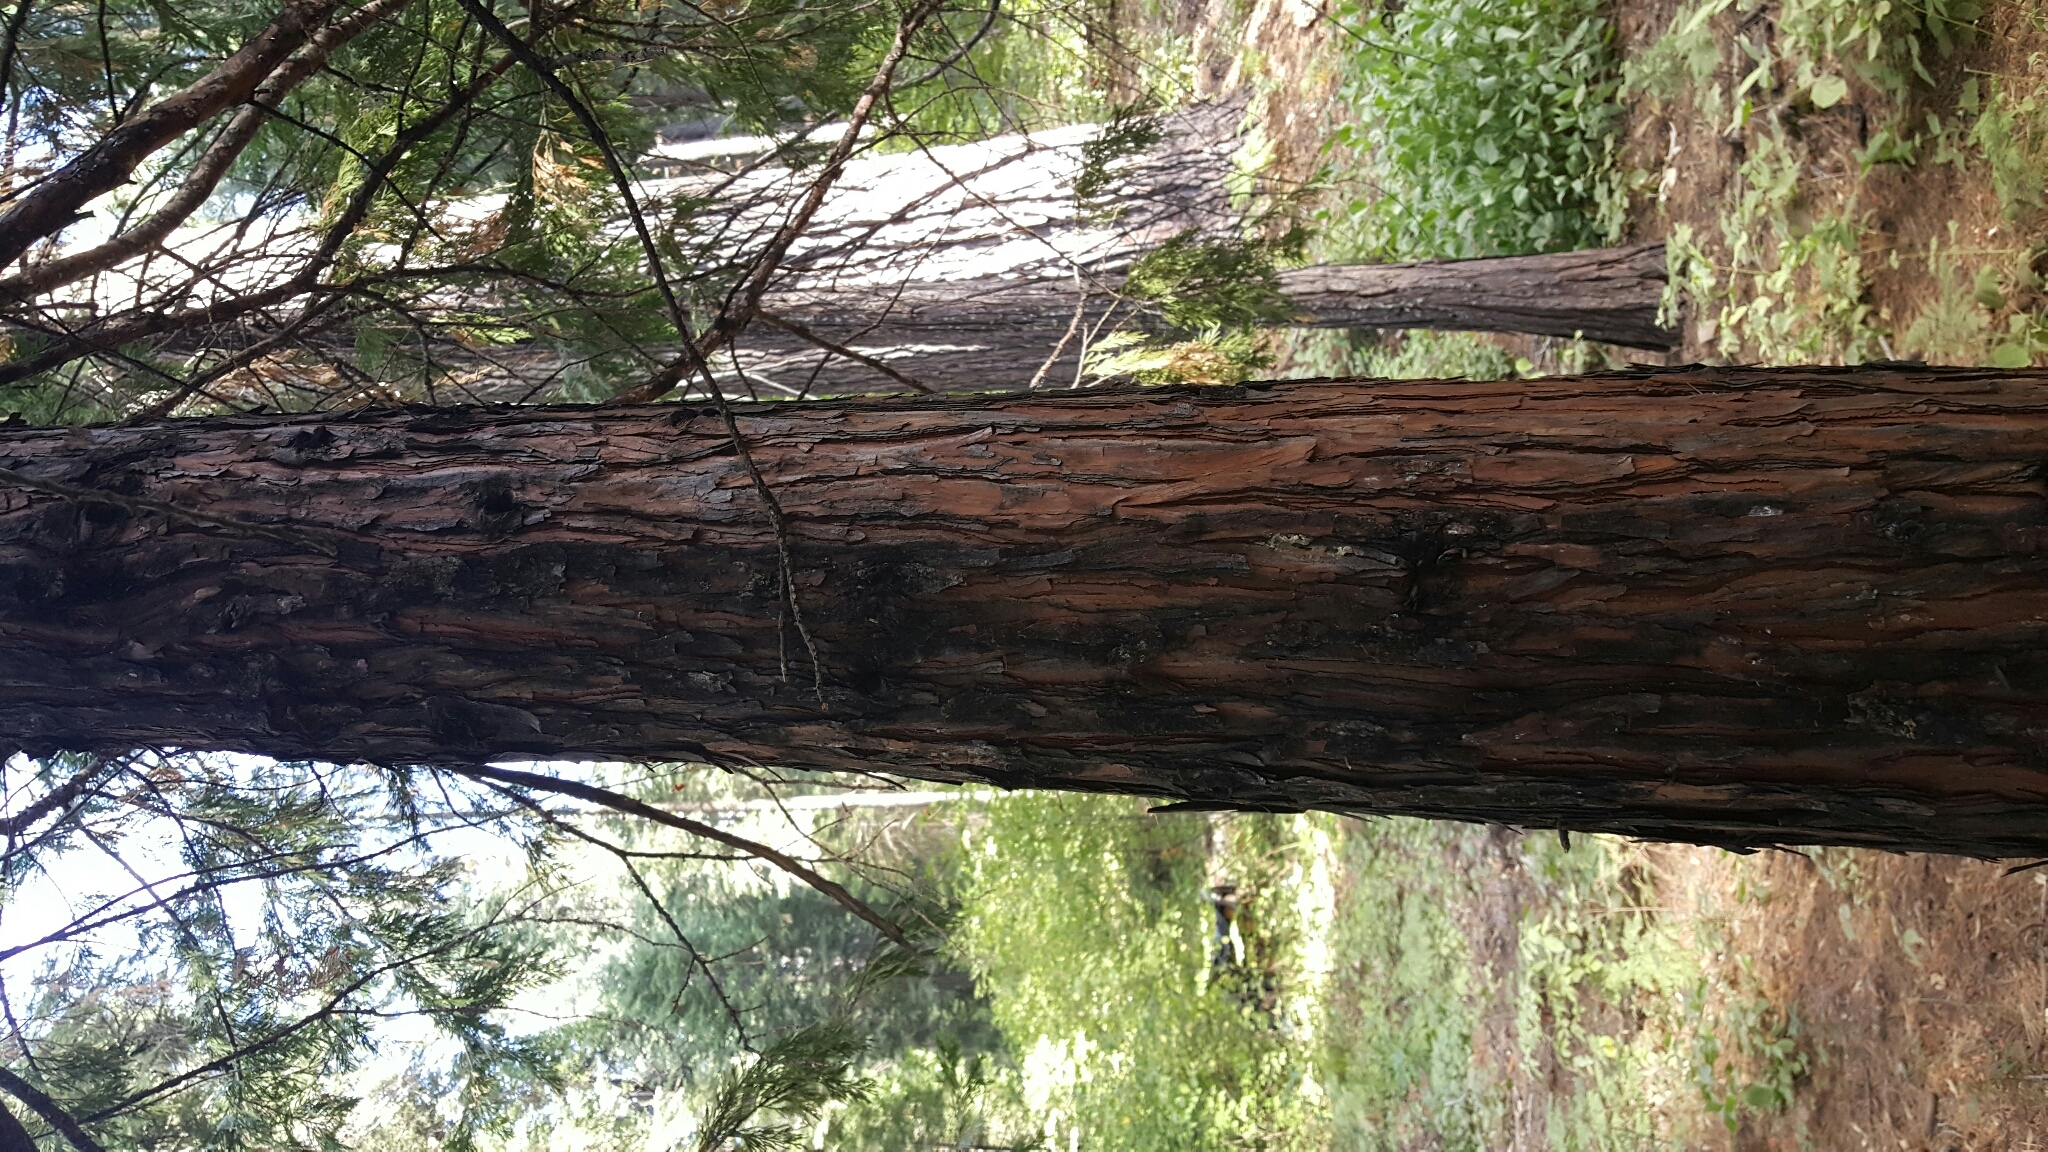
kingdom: Plantae
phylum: Tracheophyta
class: Pinopsida
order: Pinales
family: Cupressaceae
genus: Calocedrus
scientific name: Calocedrus decurrens
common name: Californian incense-cedar
